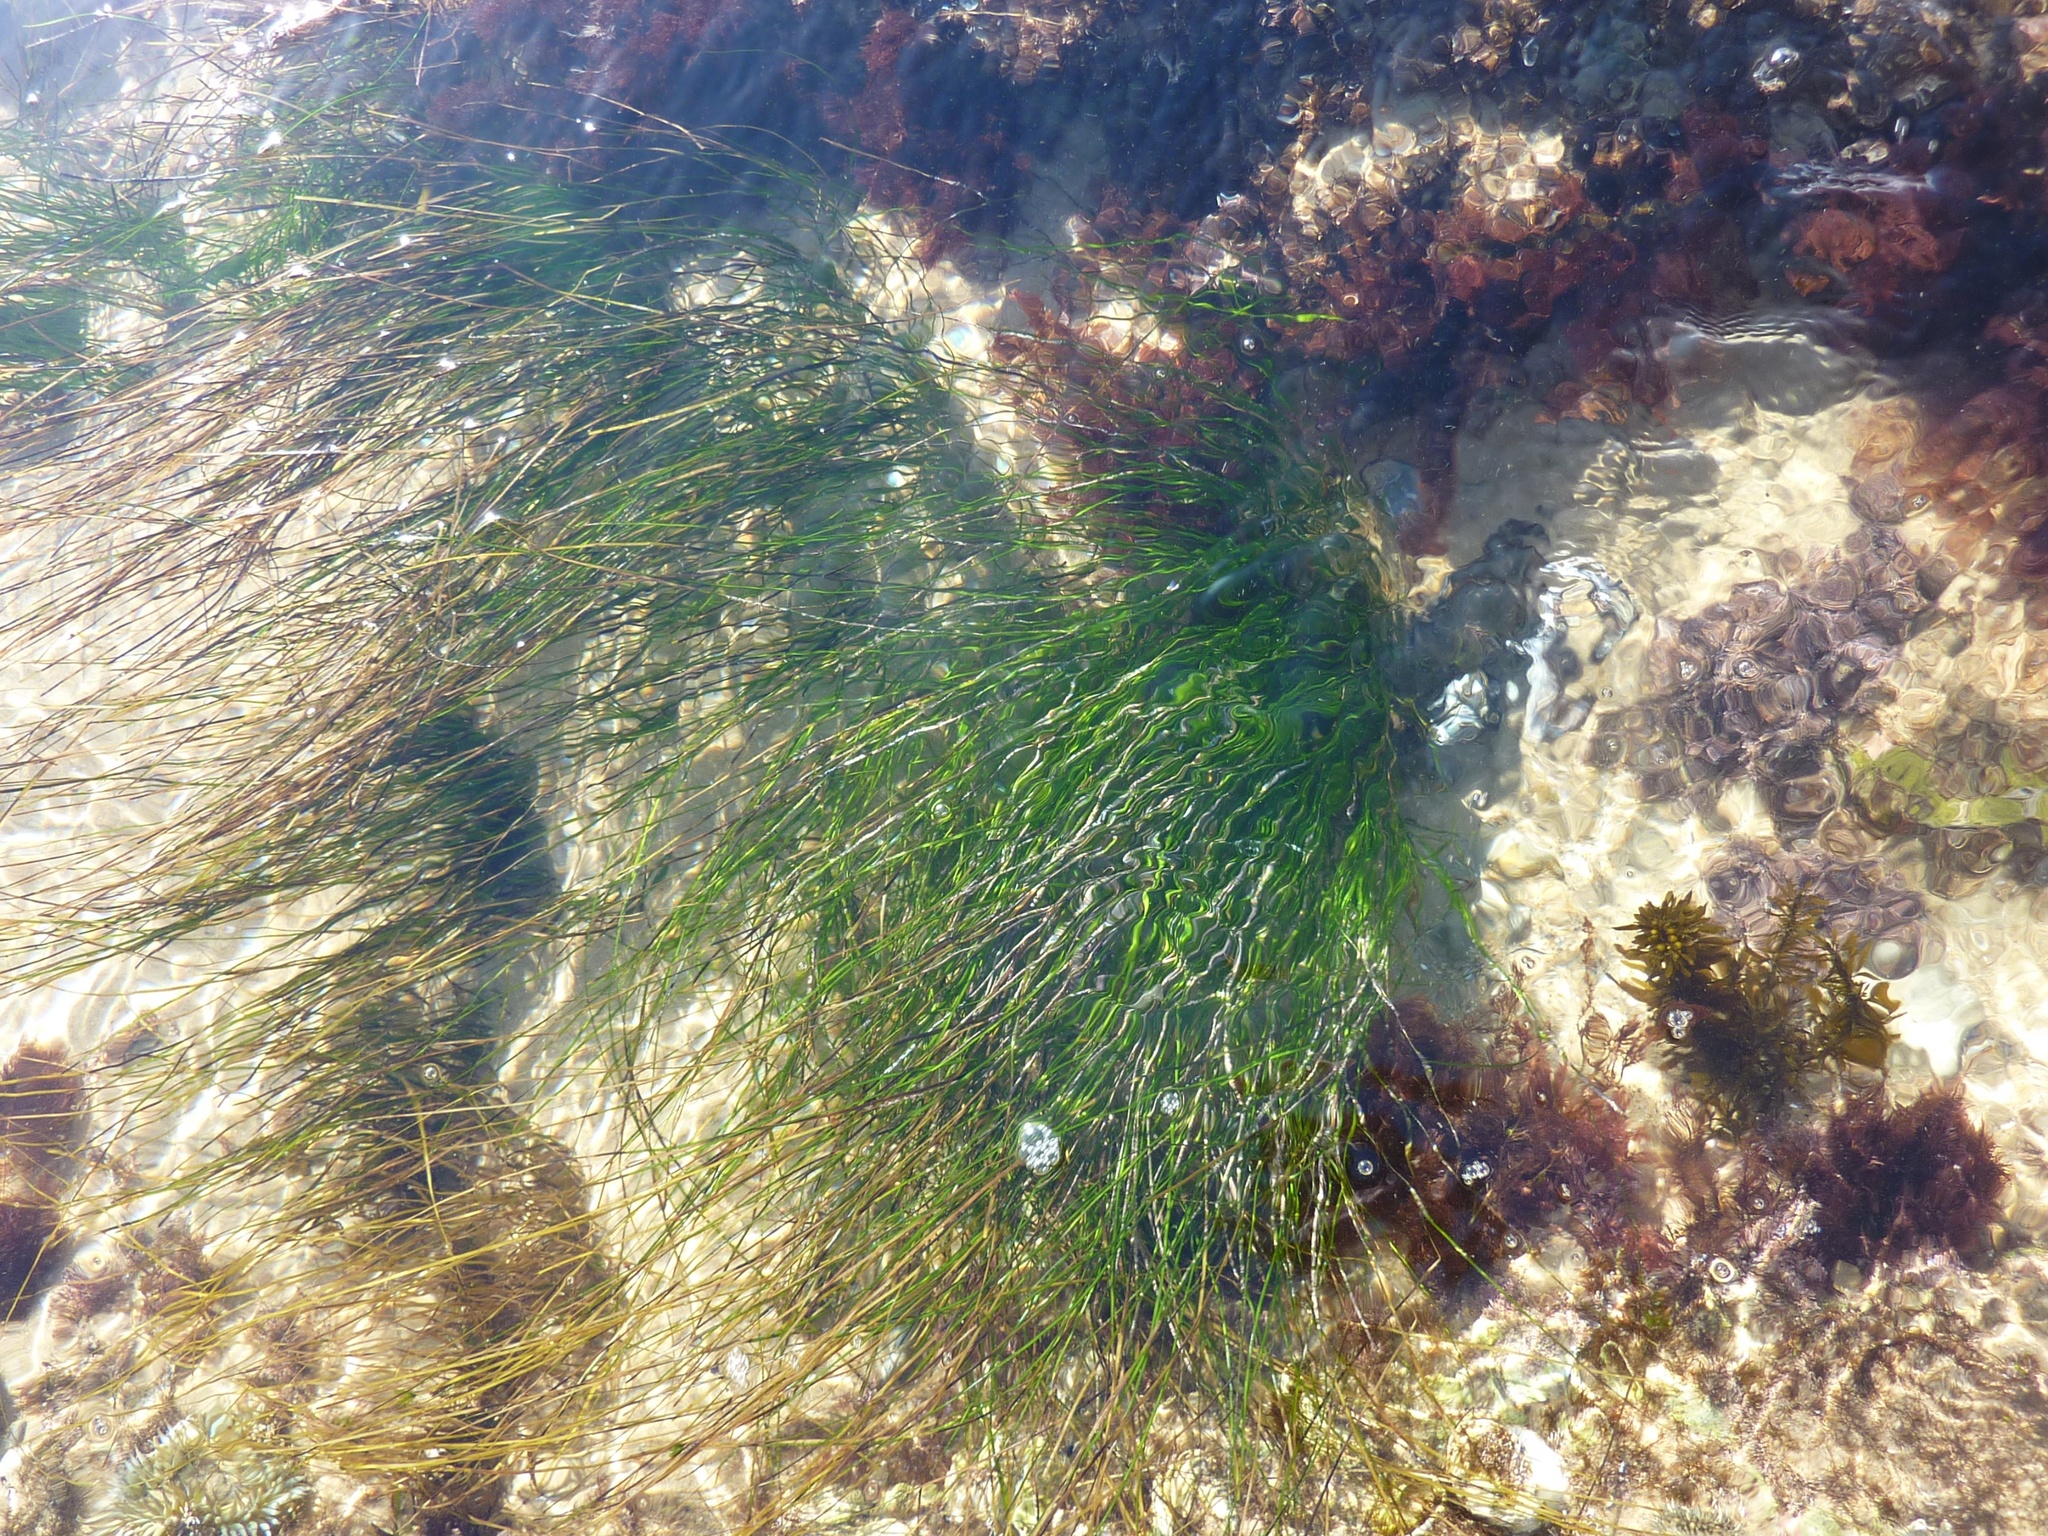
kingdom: Plantae
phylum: Tracheophyta
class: Liliopsida
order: Alismatales
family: Zosteraceae
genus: Phyllospadix
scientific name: Phyllospadix torreyi
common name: Surfgrass
